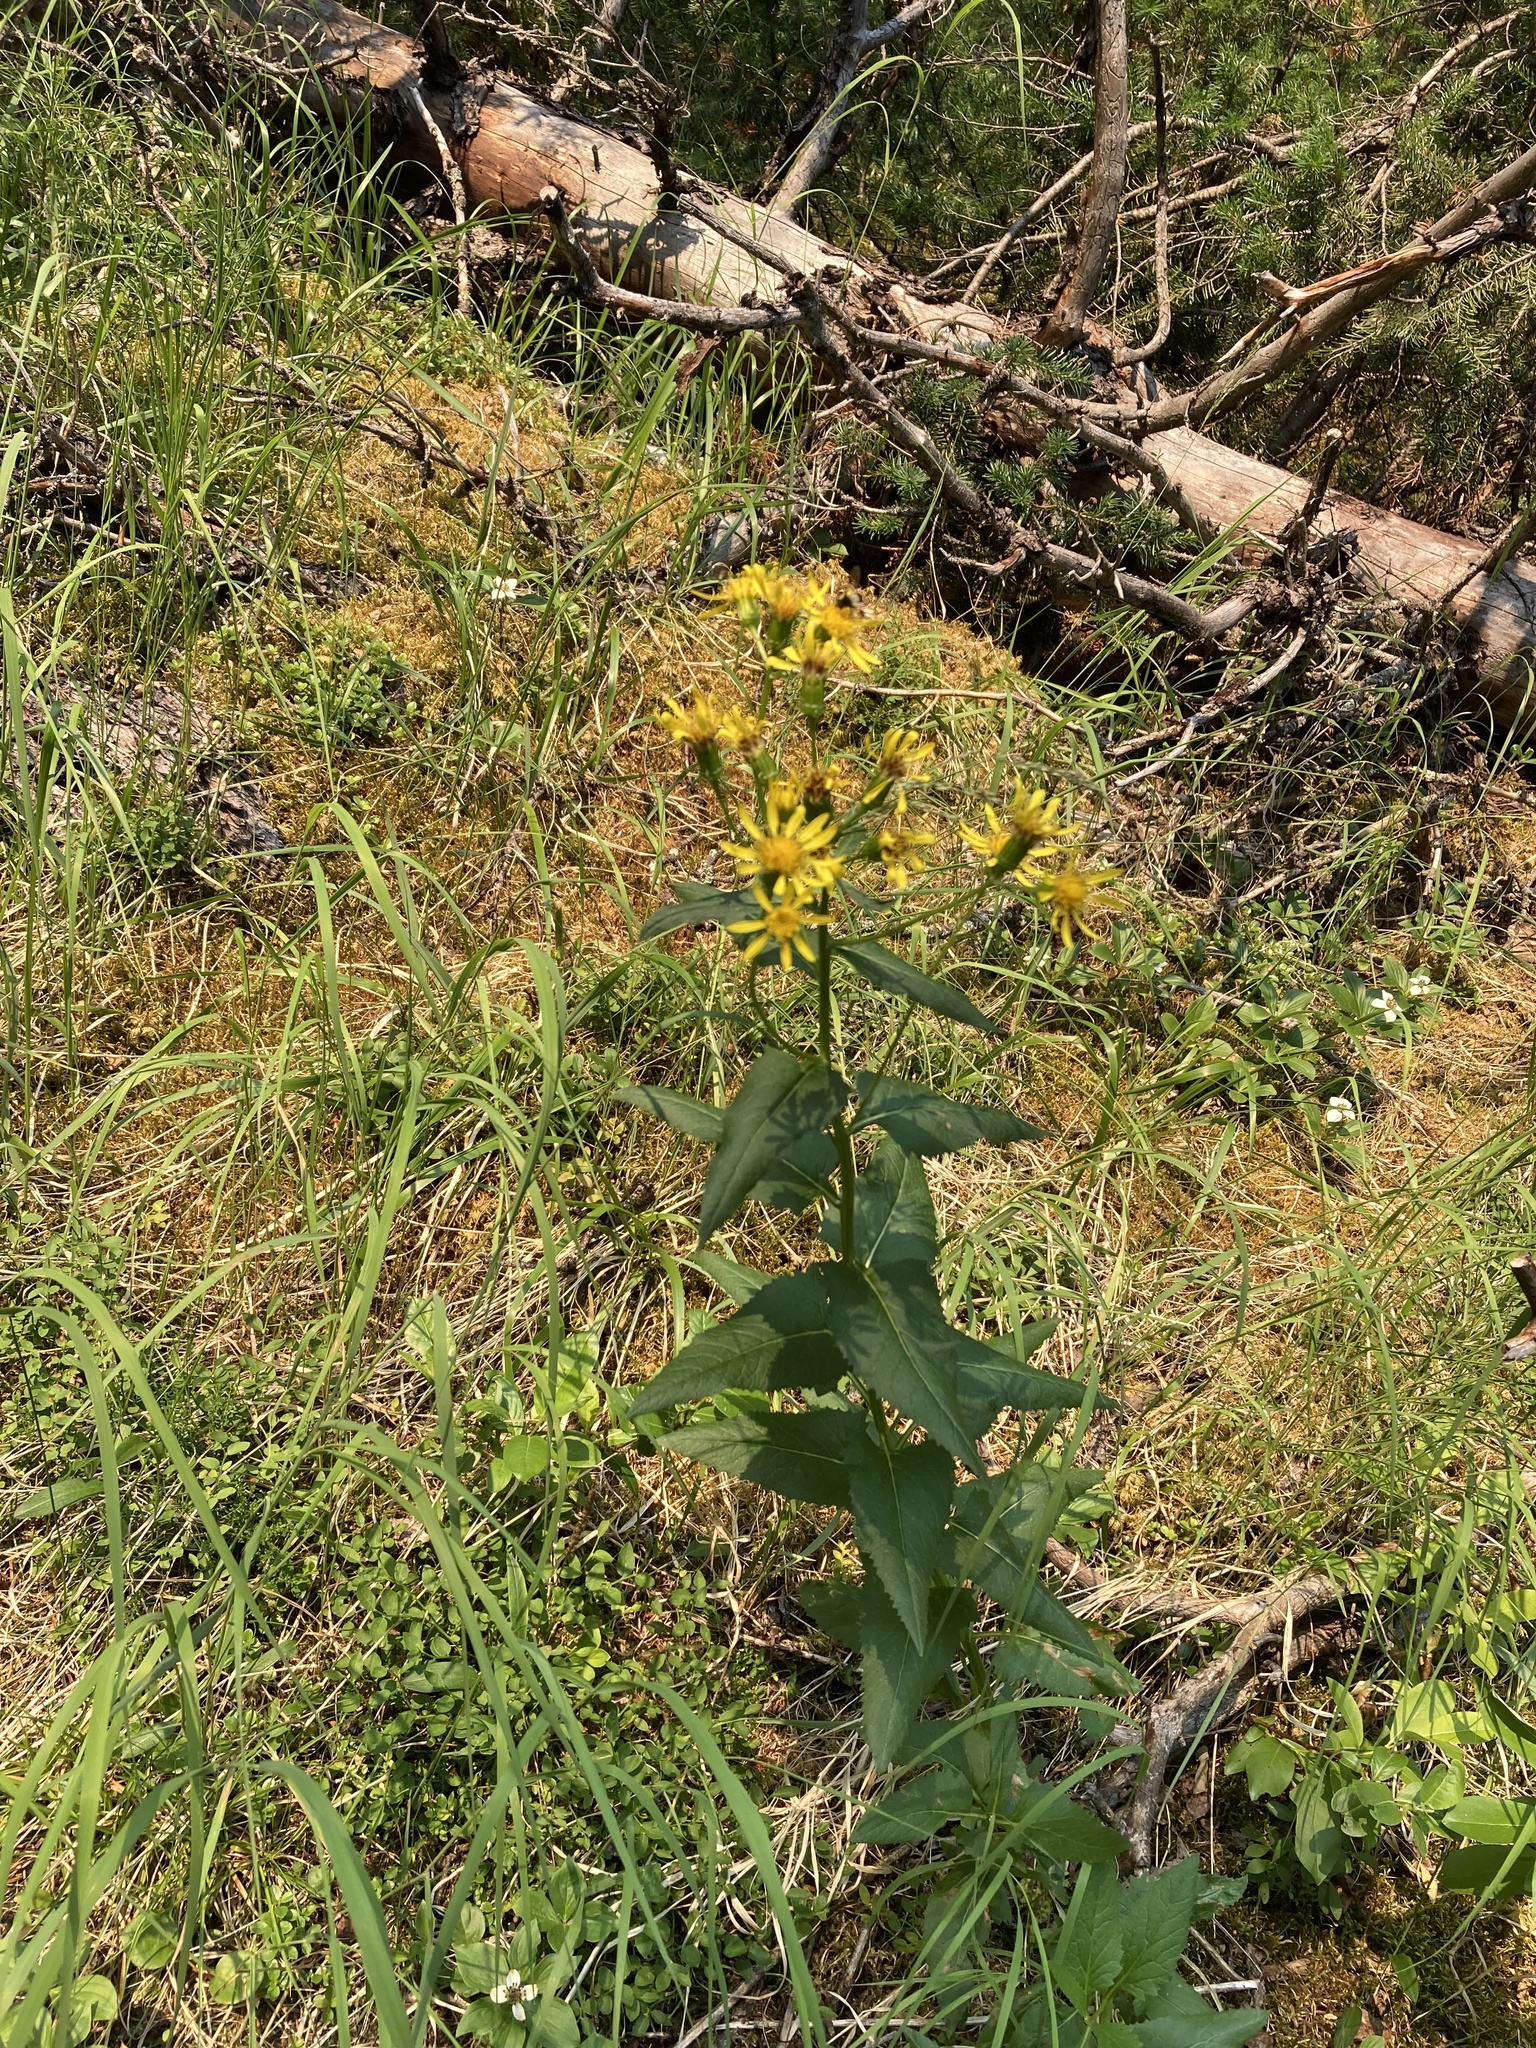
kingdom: Plantae
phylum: Tracheophyta
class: Magnoliopsida
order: Asterales
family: Asteraceae
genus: Senecio
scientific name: Senecio triangularis
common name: Arrowleaf butterweed
